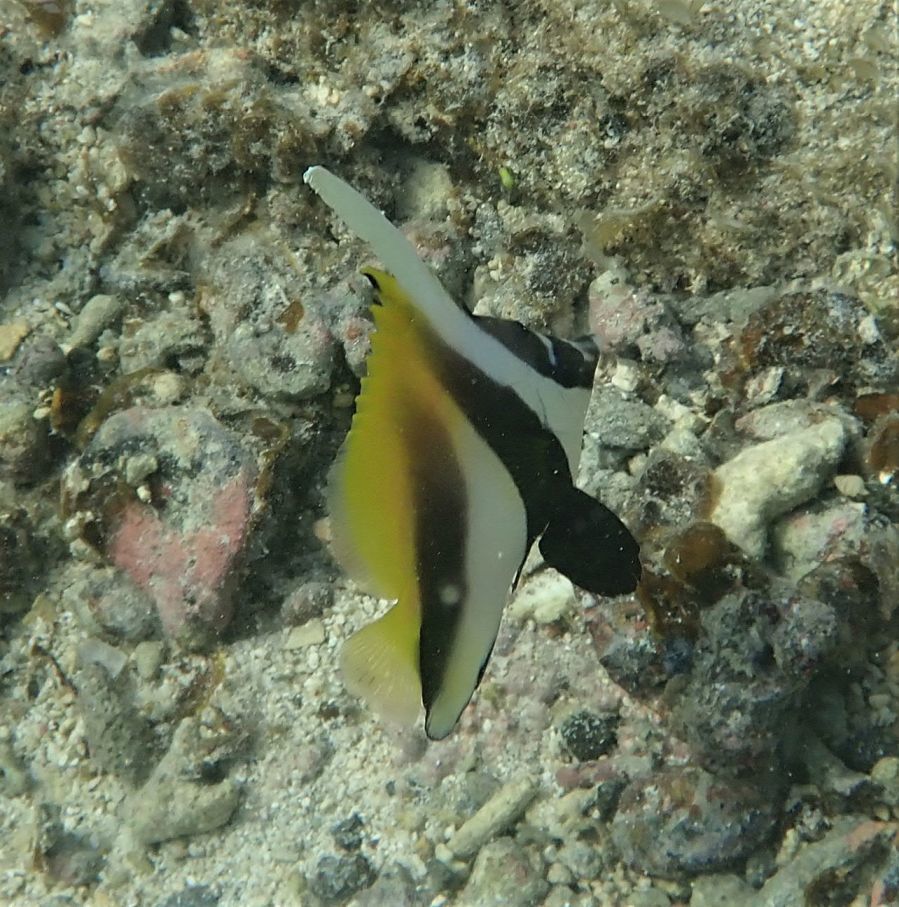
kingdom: Animalia
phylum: Chordata
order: Perciformes
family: Chaetodontidae
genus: Heniochus
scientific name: Heniochus monoceros
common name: Masked bannerfish
